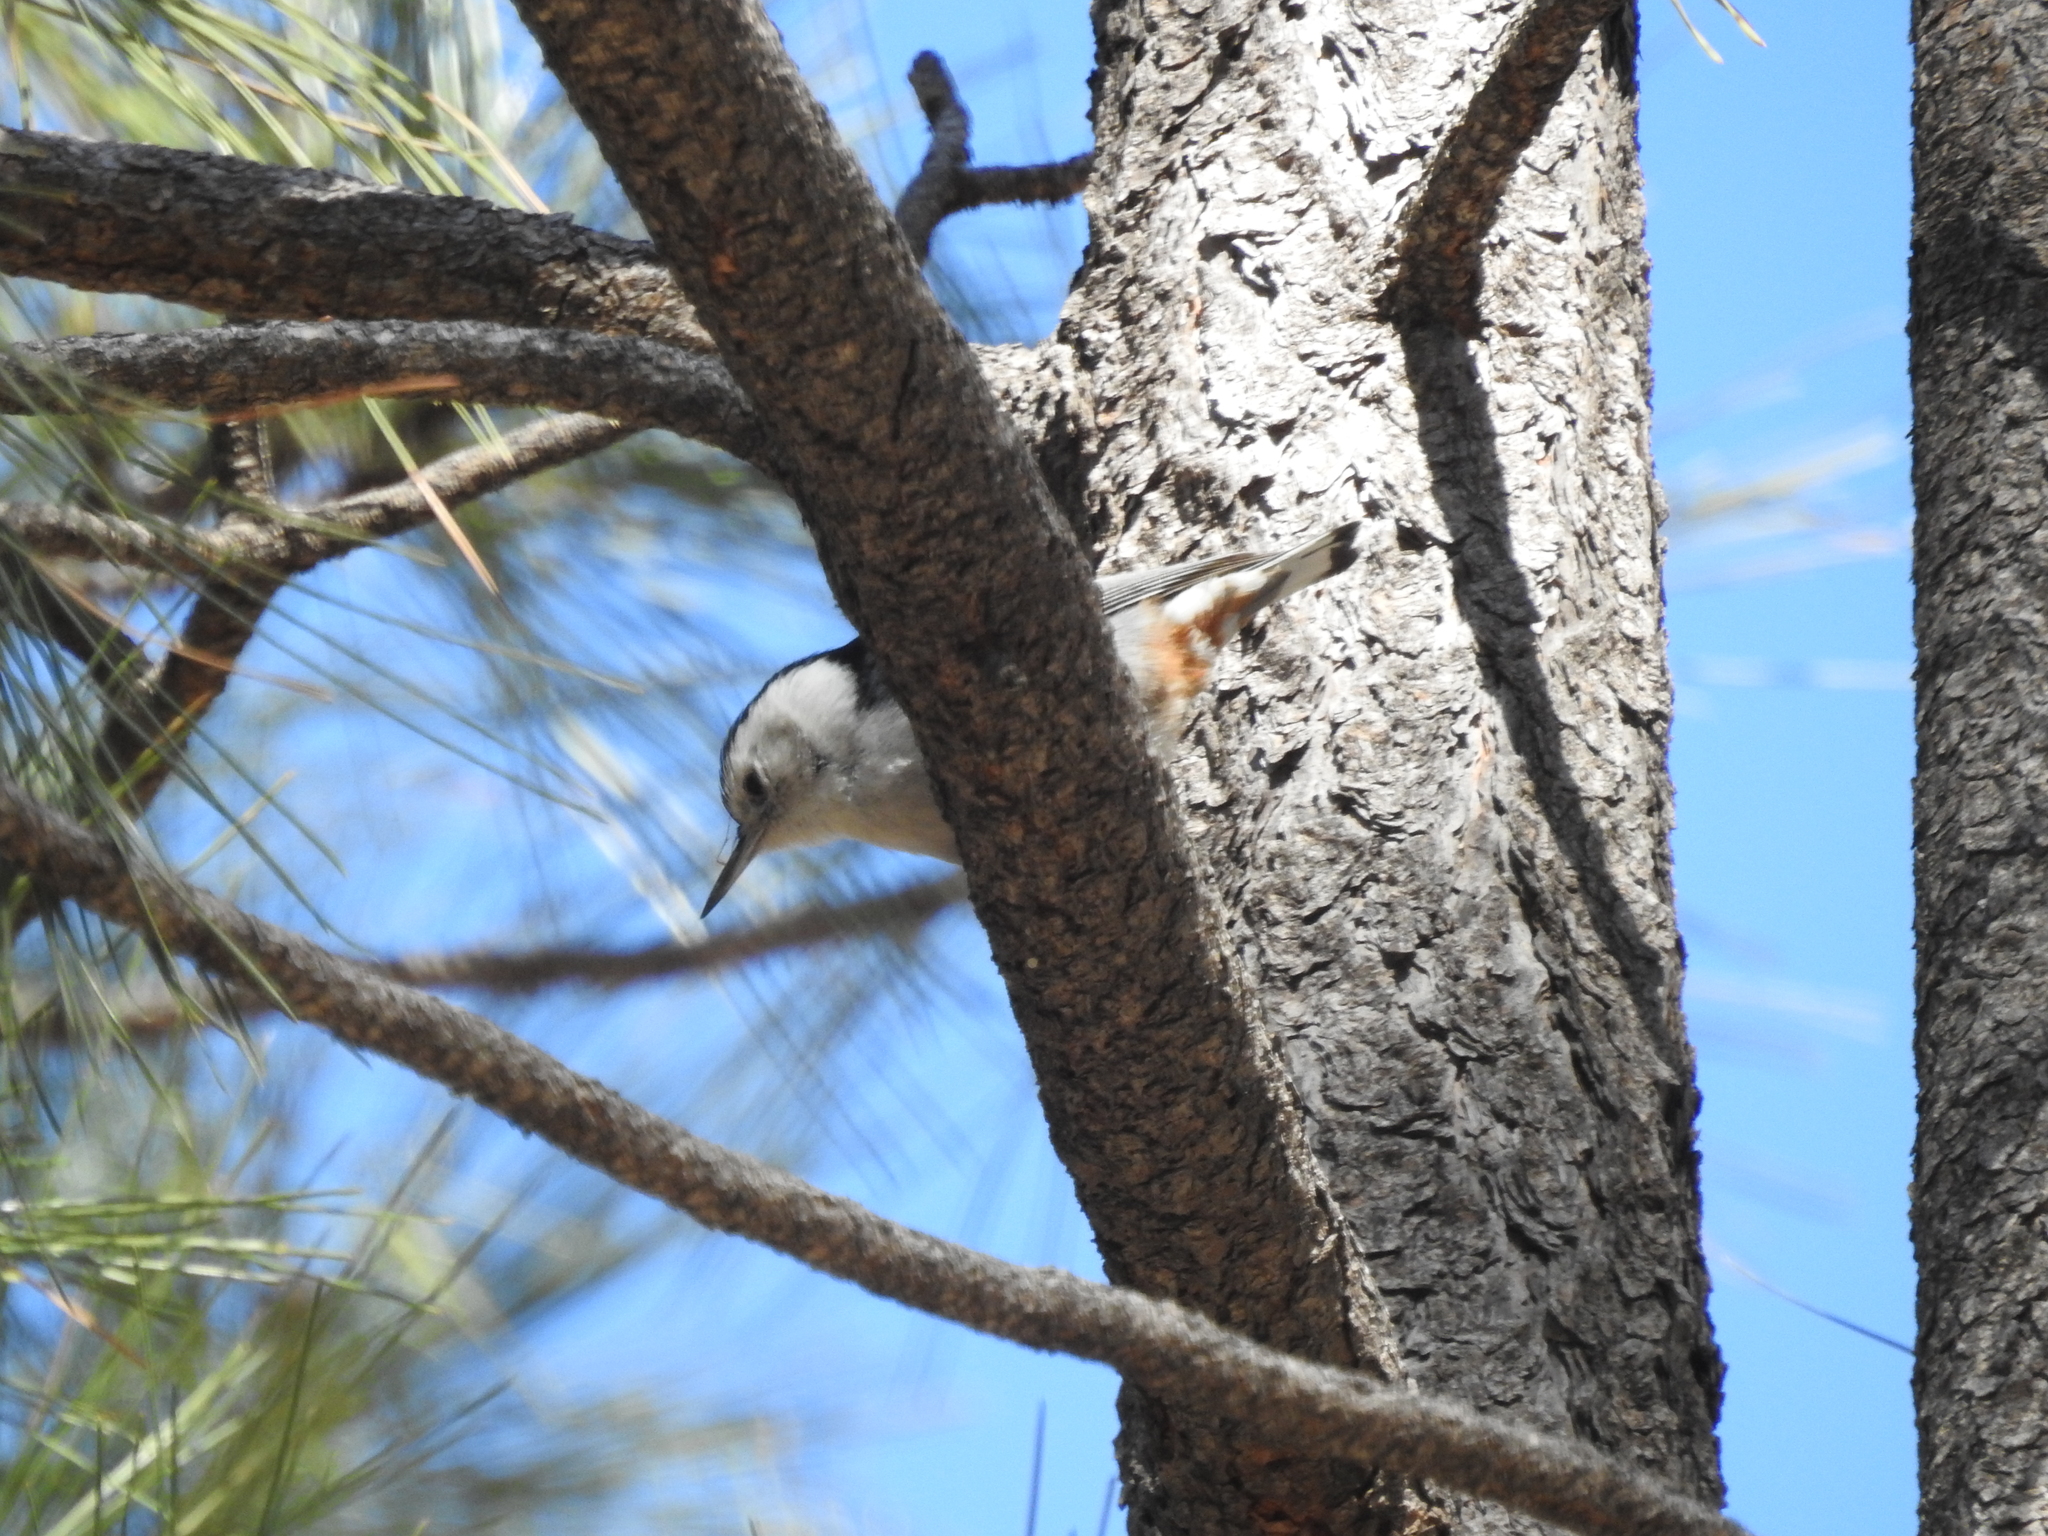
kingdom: Animalia
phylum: Chordata
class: Aves
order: Passeriformes
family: Sittidae
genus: Sitta
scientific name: Sitta carolinensis
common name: White-breasted nuthatch
